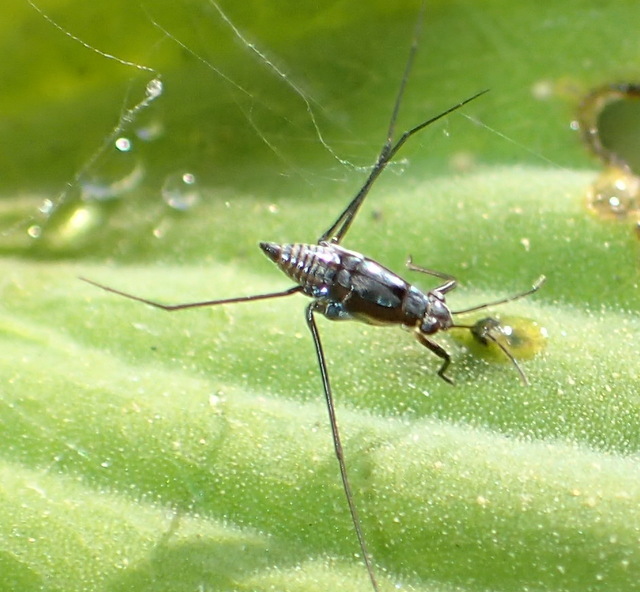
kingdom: Animalia
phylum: Arthropoda
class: Insecta
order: Hemiptera
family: Gerridae
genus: Neogerris
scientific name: Neogerris hesione
